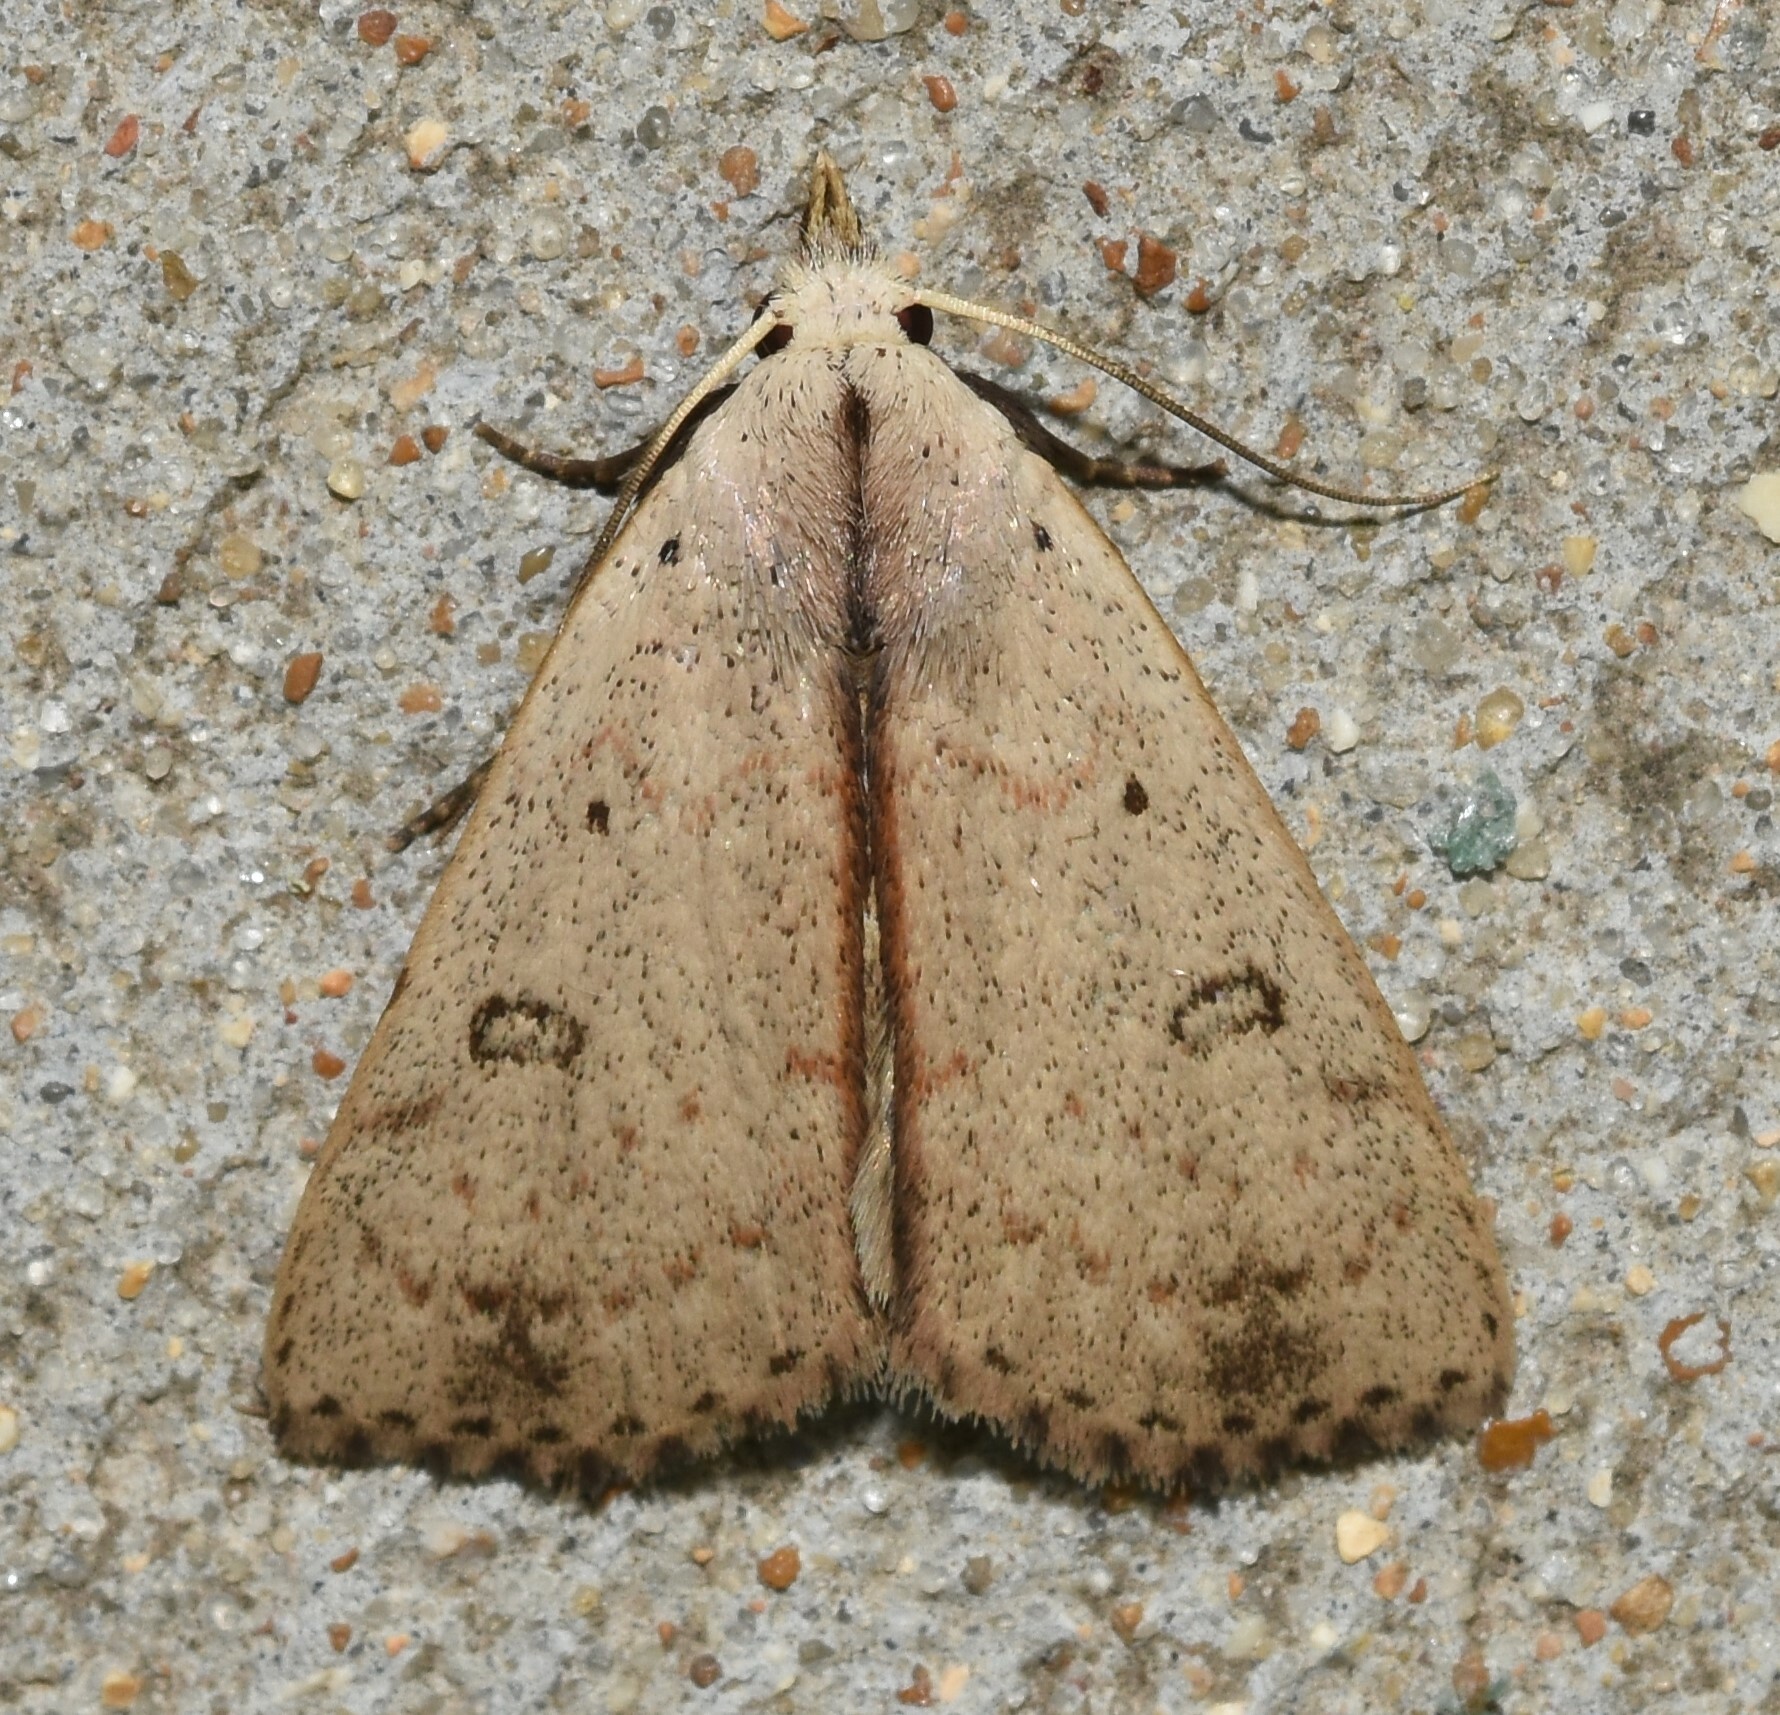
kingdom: Animalia
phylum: Arthropoda
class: Insecta
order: Lepidoptera
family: Erebidae
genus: Scolecocampa
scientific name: Scolecocampa liburna
